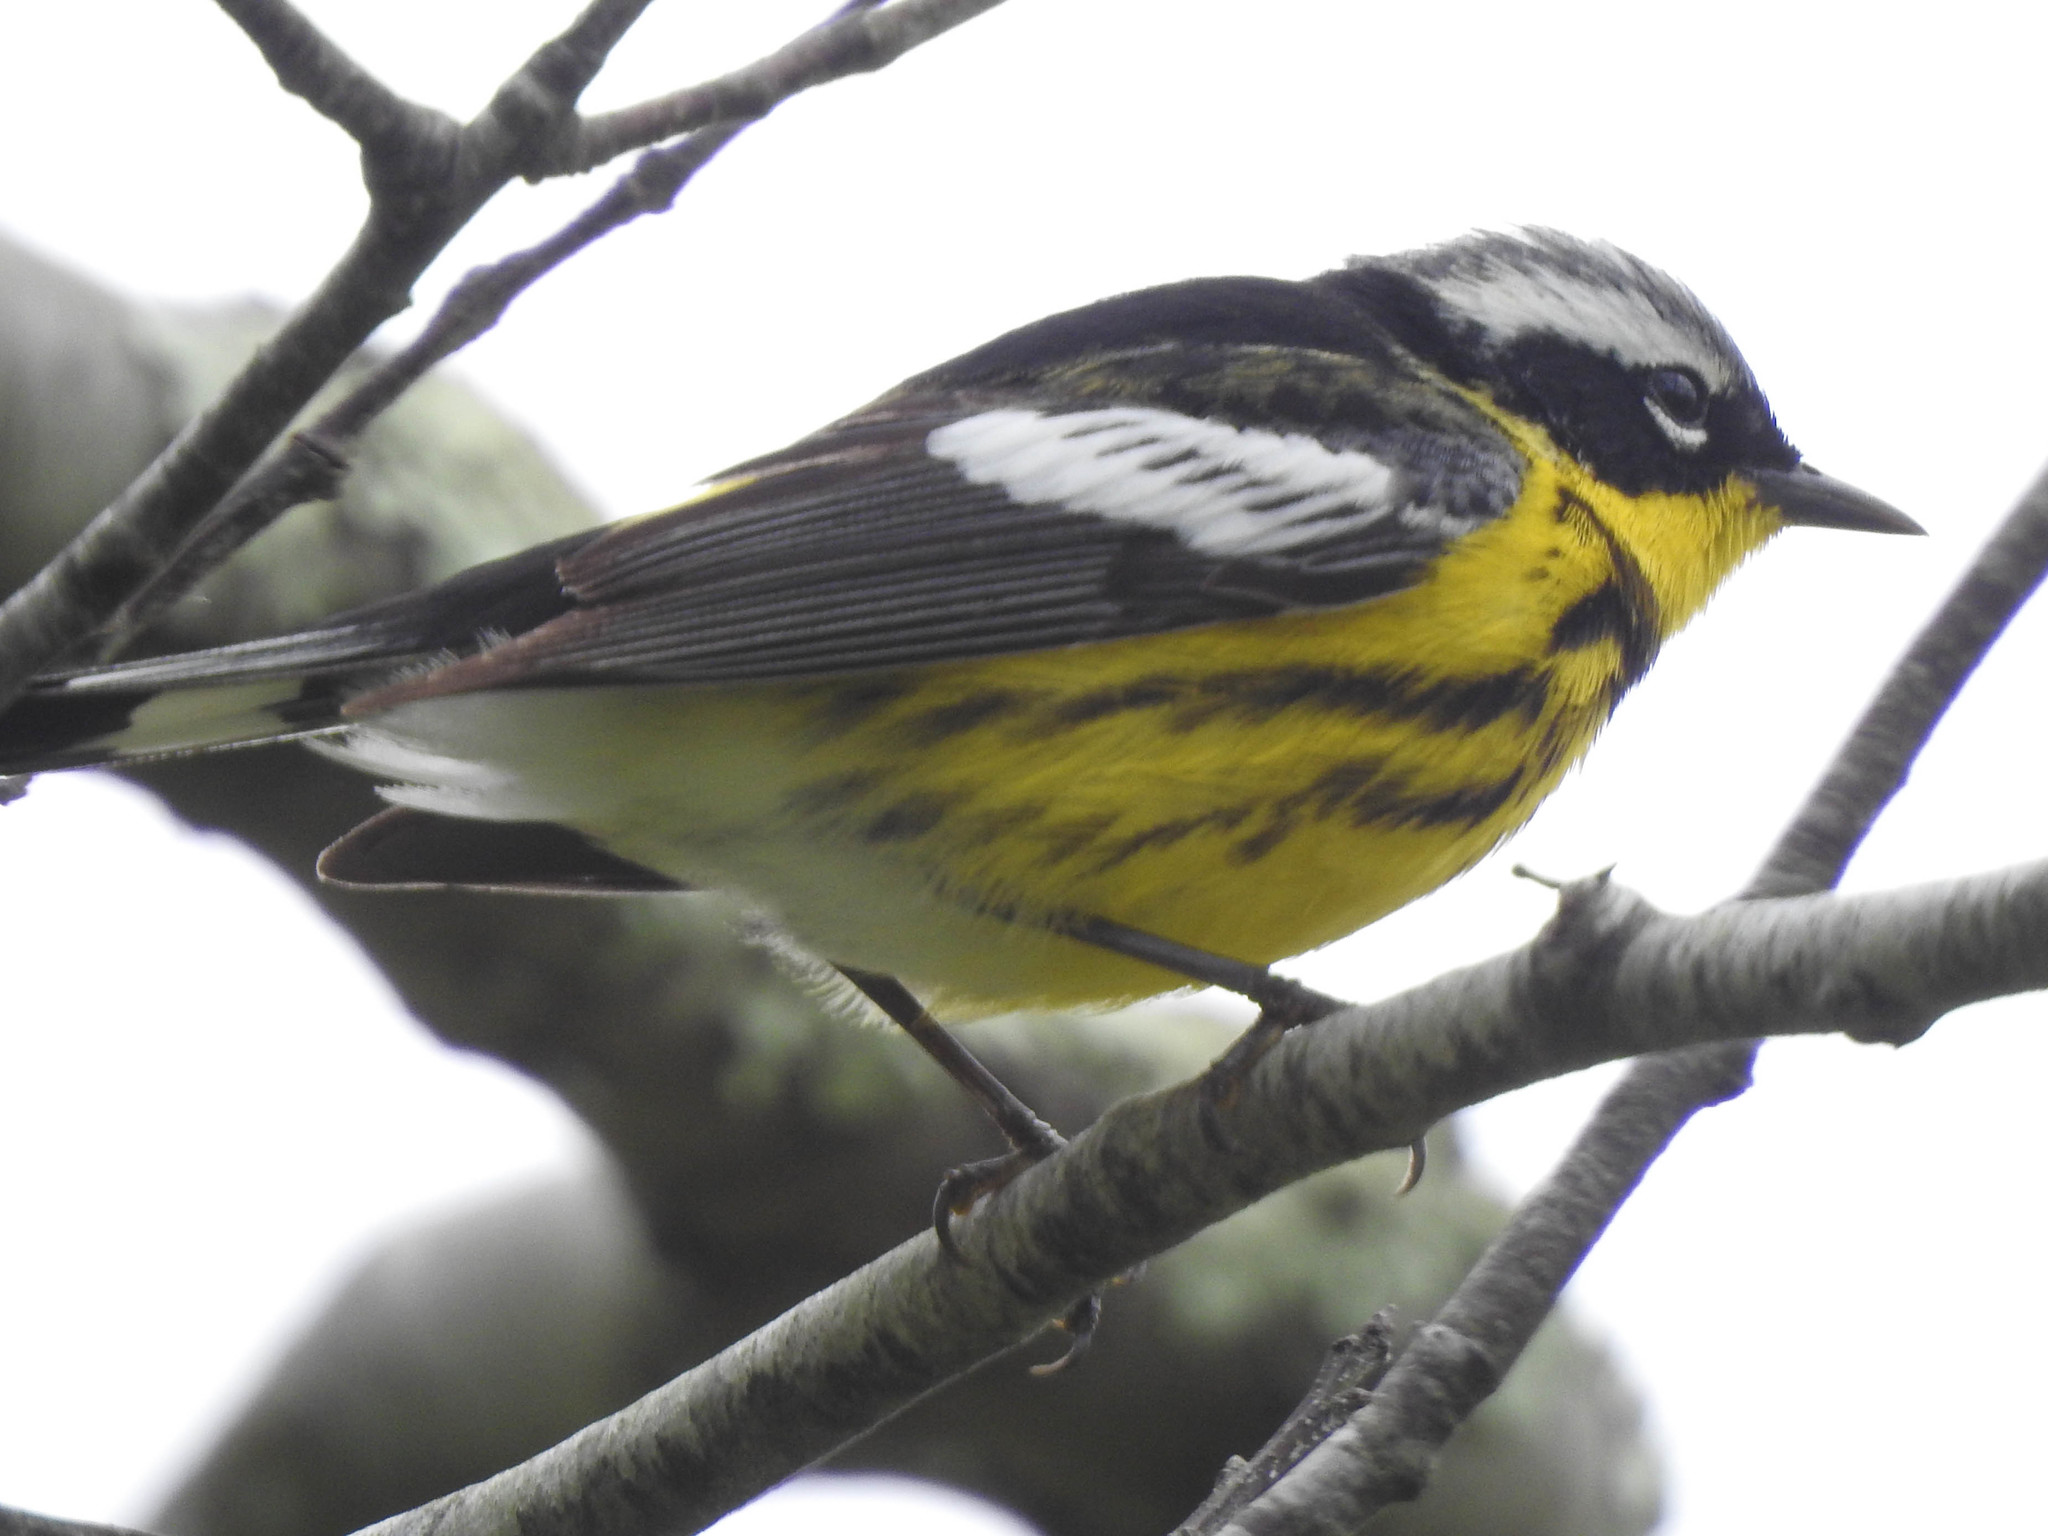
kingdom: Animalia
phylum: Chordata
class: Aves
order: Passeriformes
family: Parulidae
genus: Setophaga
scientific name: Setophaga magnolia
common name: Magnolia warbler
